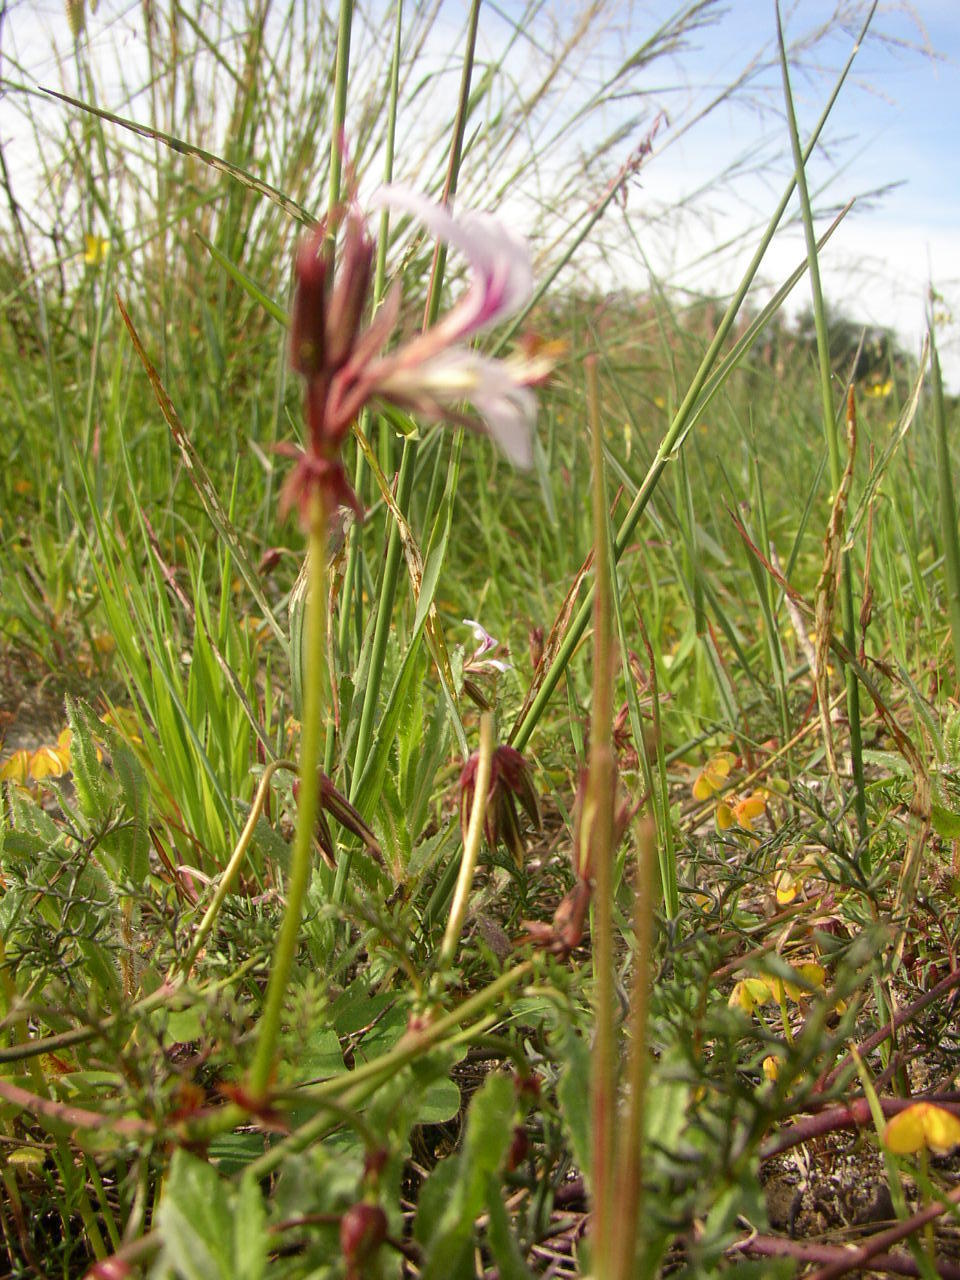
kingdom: Plantae
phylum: Tracheophyta
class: Magnoliopsida
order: Geraniales
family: Geraniaceae
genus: Pelargonium
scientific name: Pelargonium myrrhifolium
